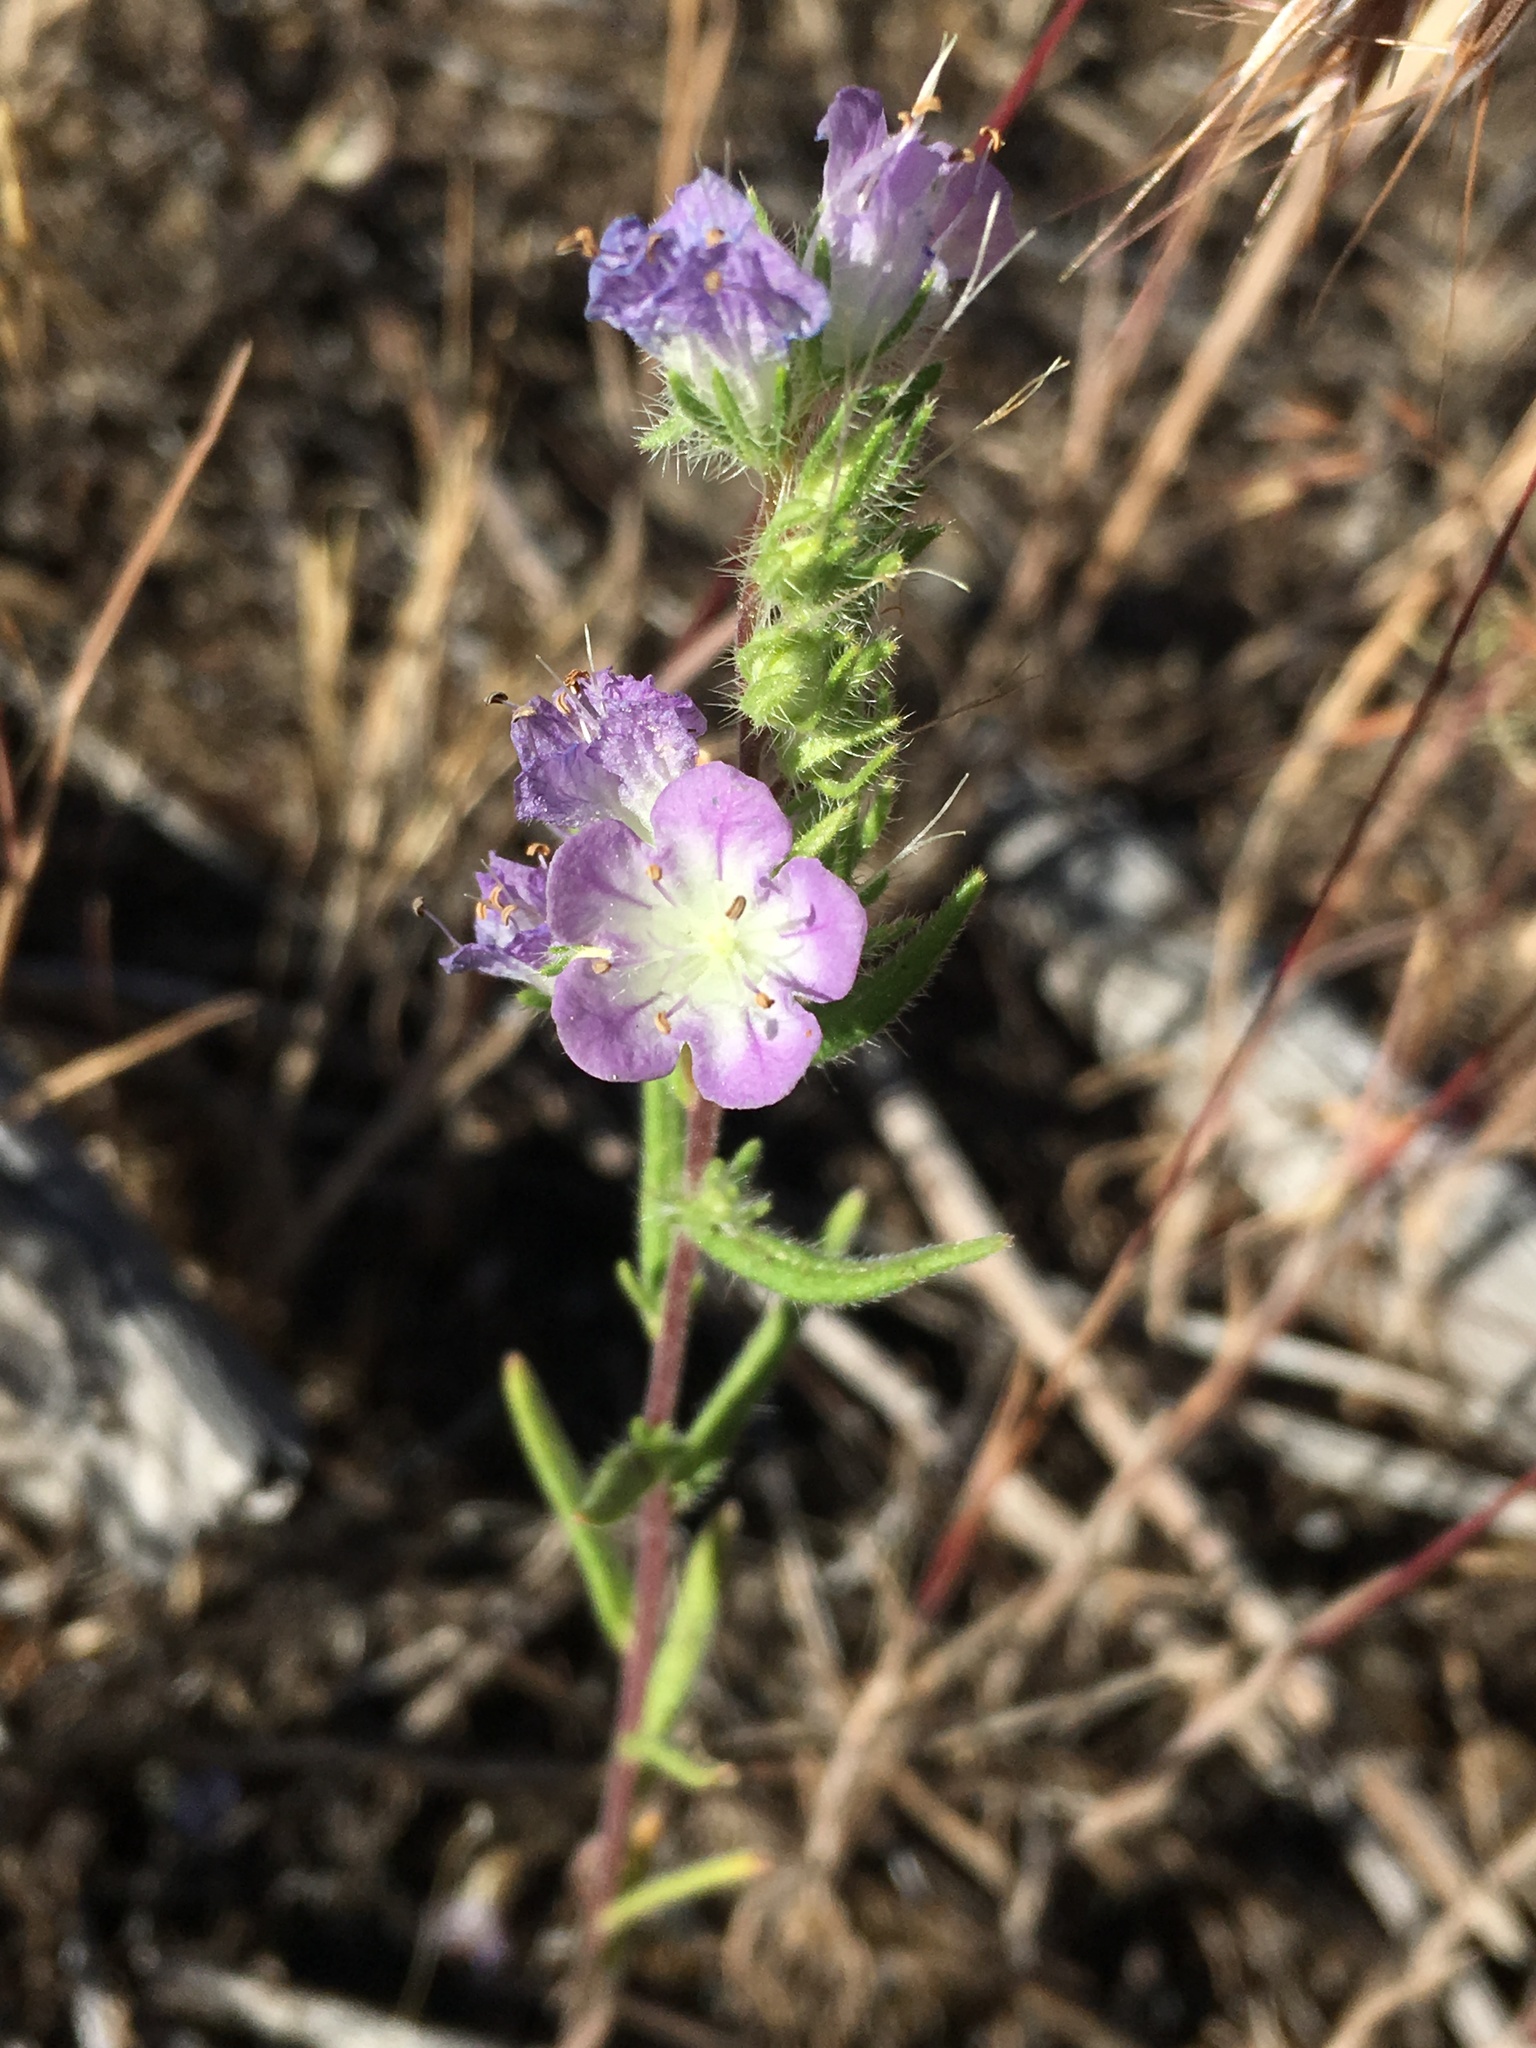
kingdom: Plantae
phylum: Tracheophyta
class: Magnoliopsida
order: Boraginales
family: Hydrophyllaceae
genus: Phacelia
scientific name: Phacelia linearis
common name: Linear-leaved phacelia
